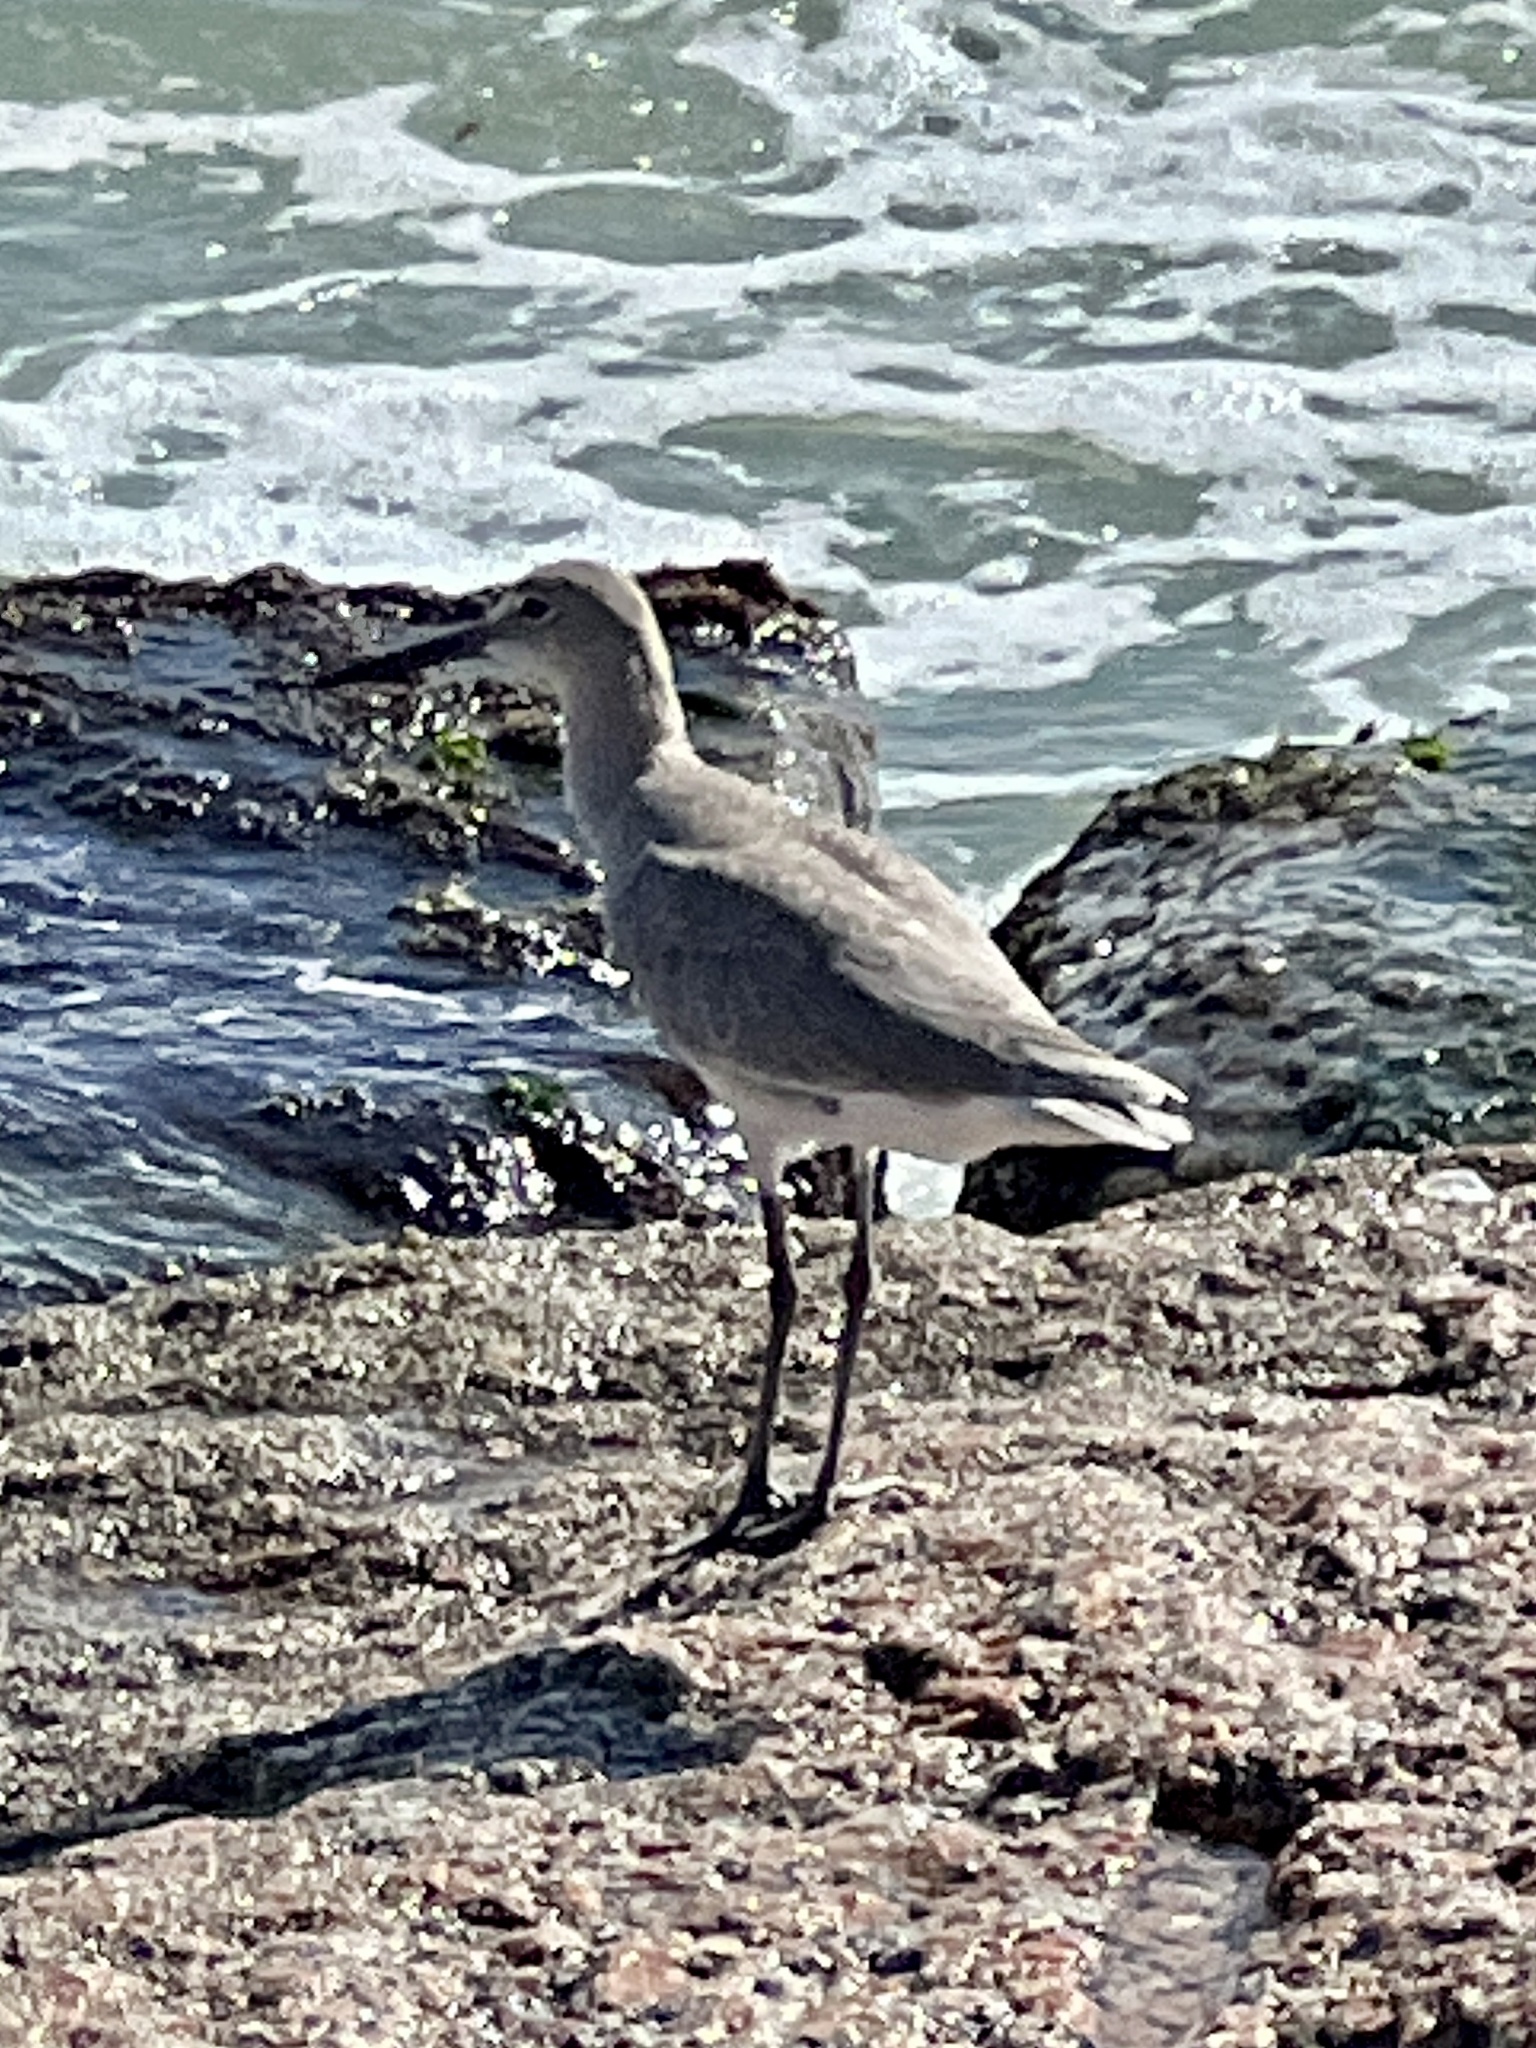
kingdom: Animalia
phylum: Chordata
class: Aves
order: Charadriiformes
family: Scolopacidae
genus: Tringa
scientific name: Tringa semipalmata
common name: Willet
